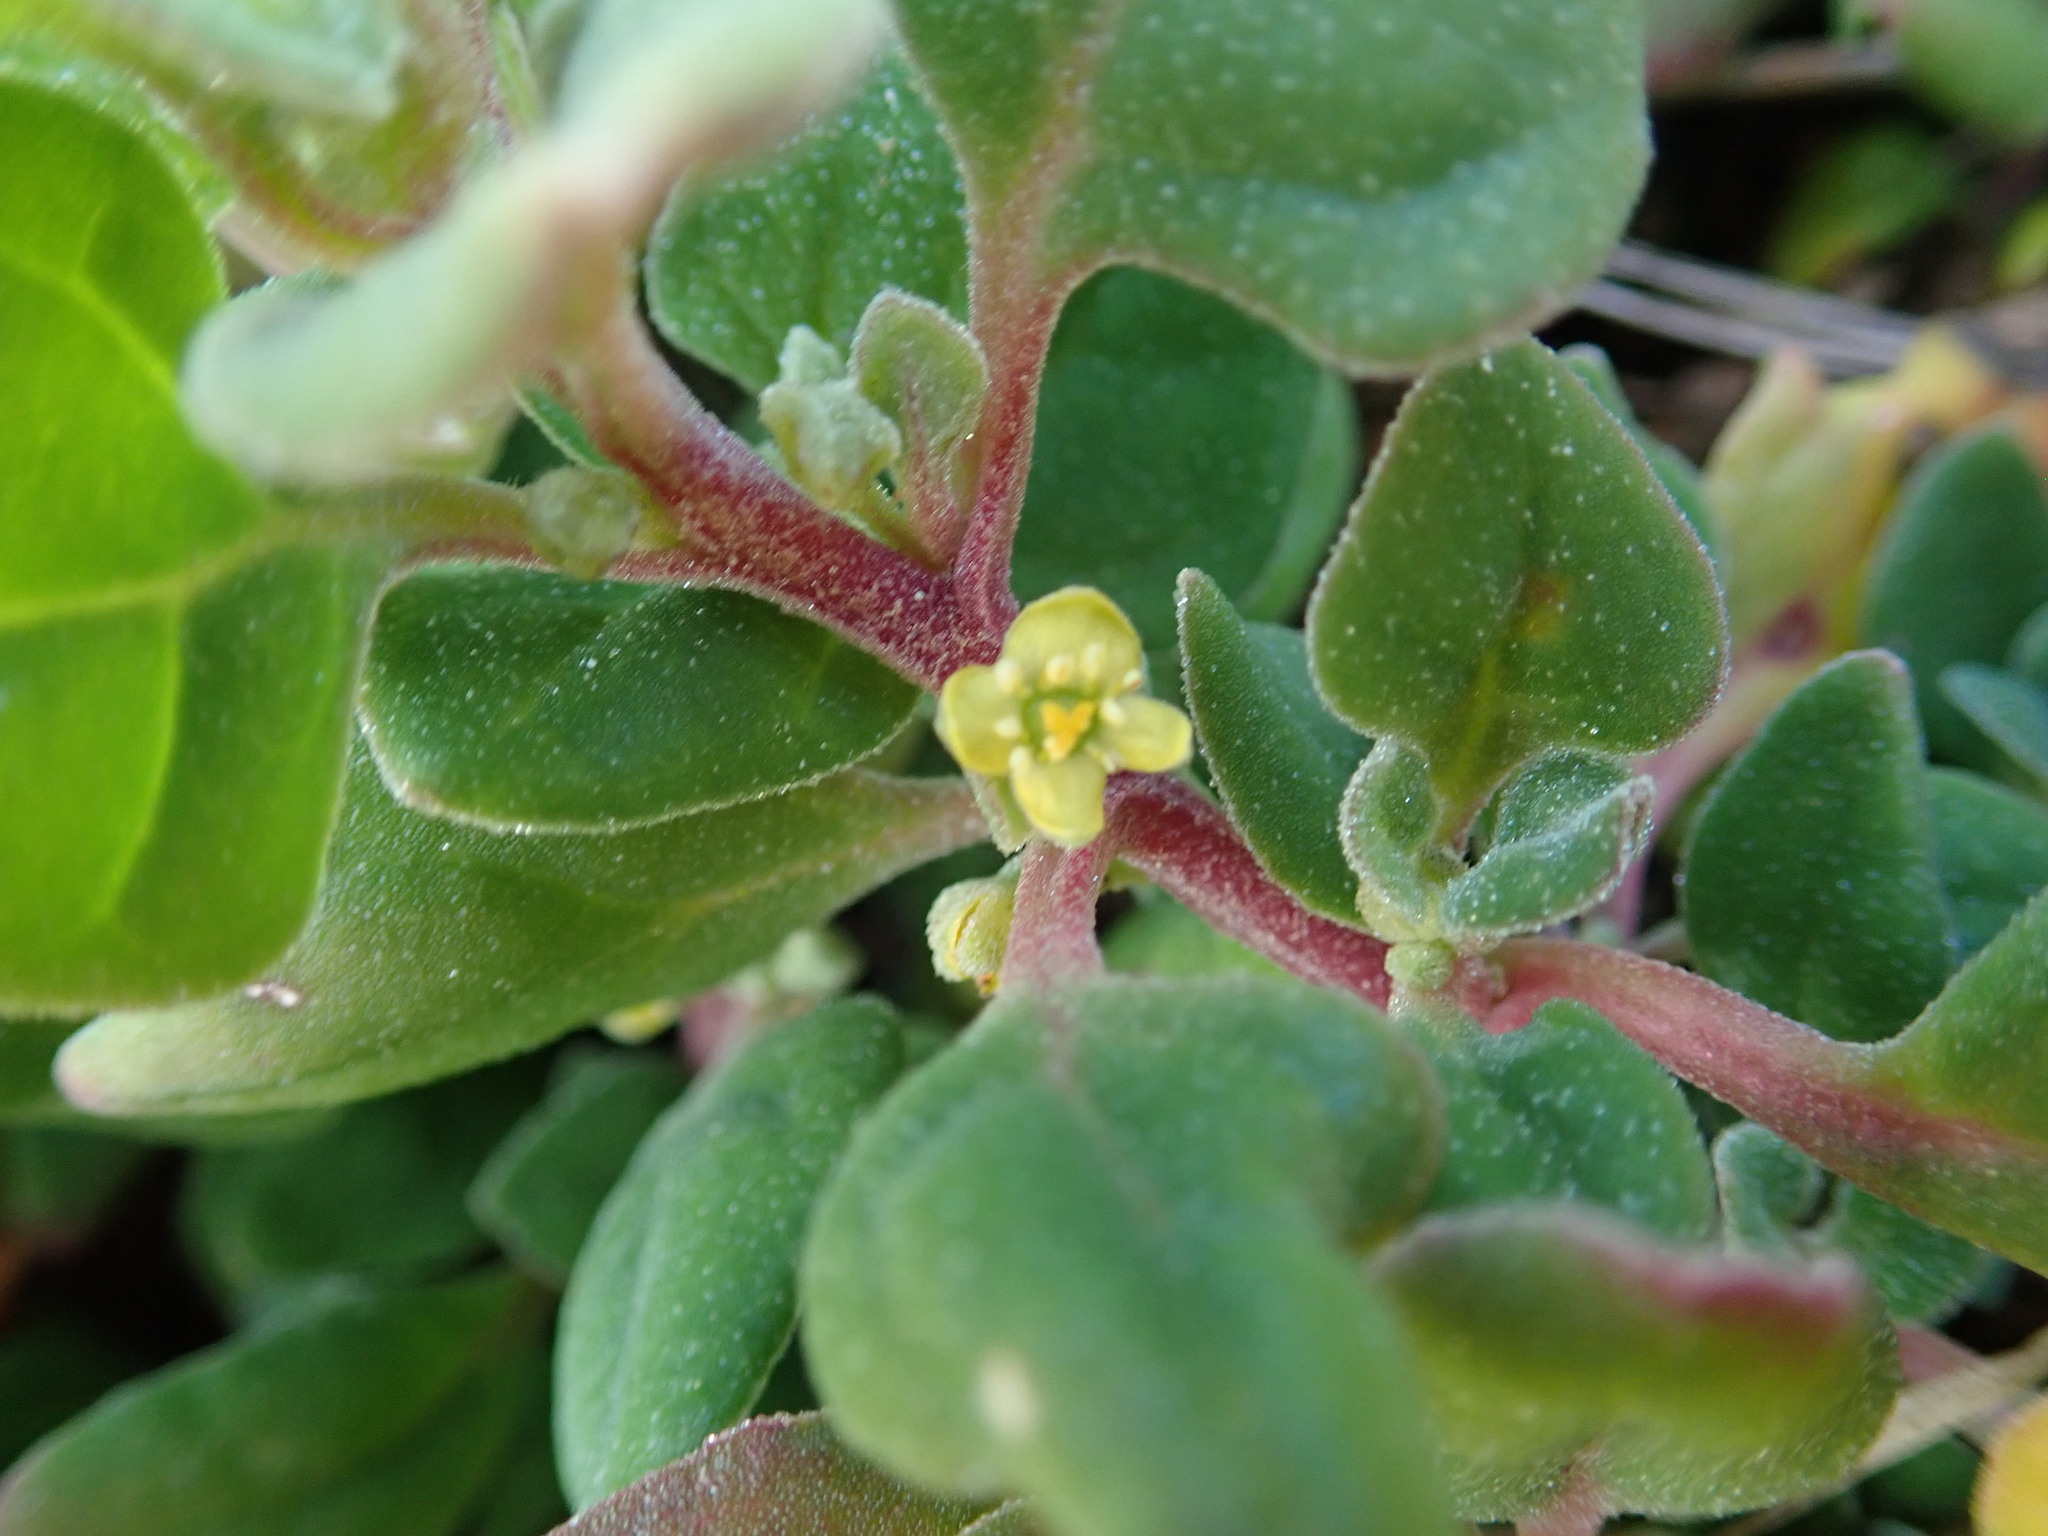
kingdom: Plantae
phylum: Tracheophyta
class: Magnoliopsida
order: Caryophyllales
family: Aizoaceae
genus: Tetragonia
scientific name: Tetragonia implexicoma
